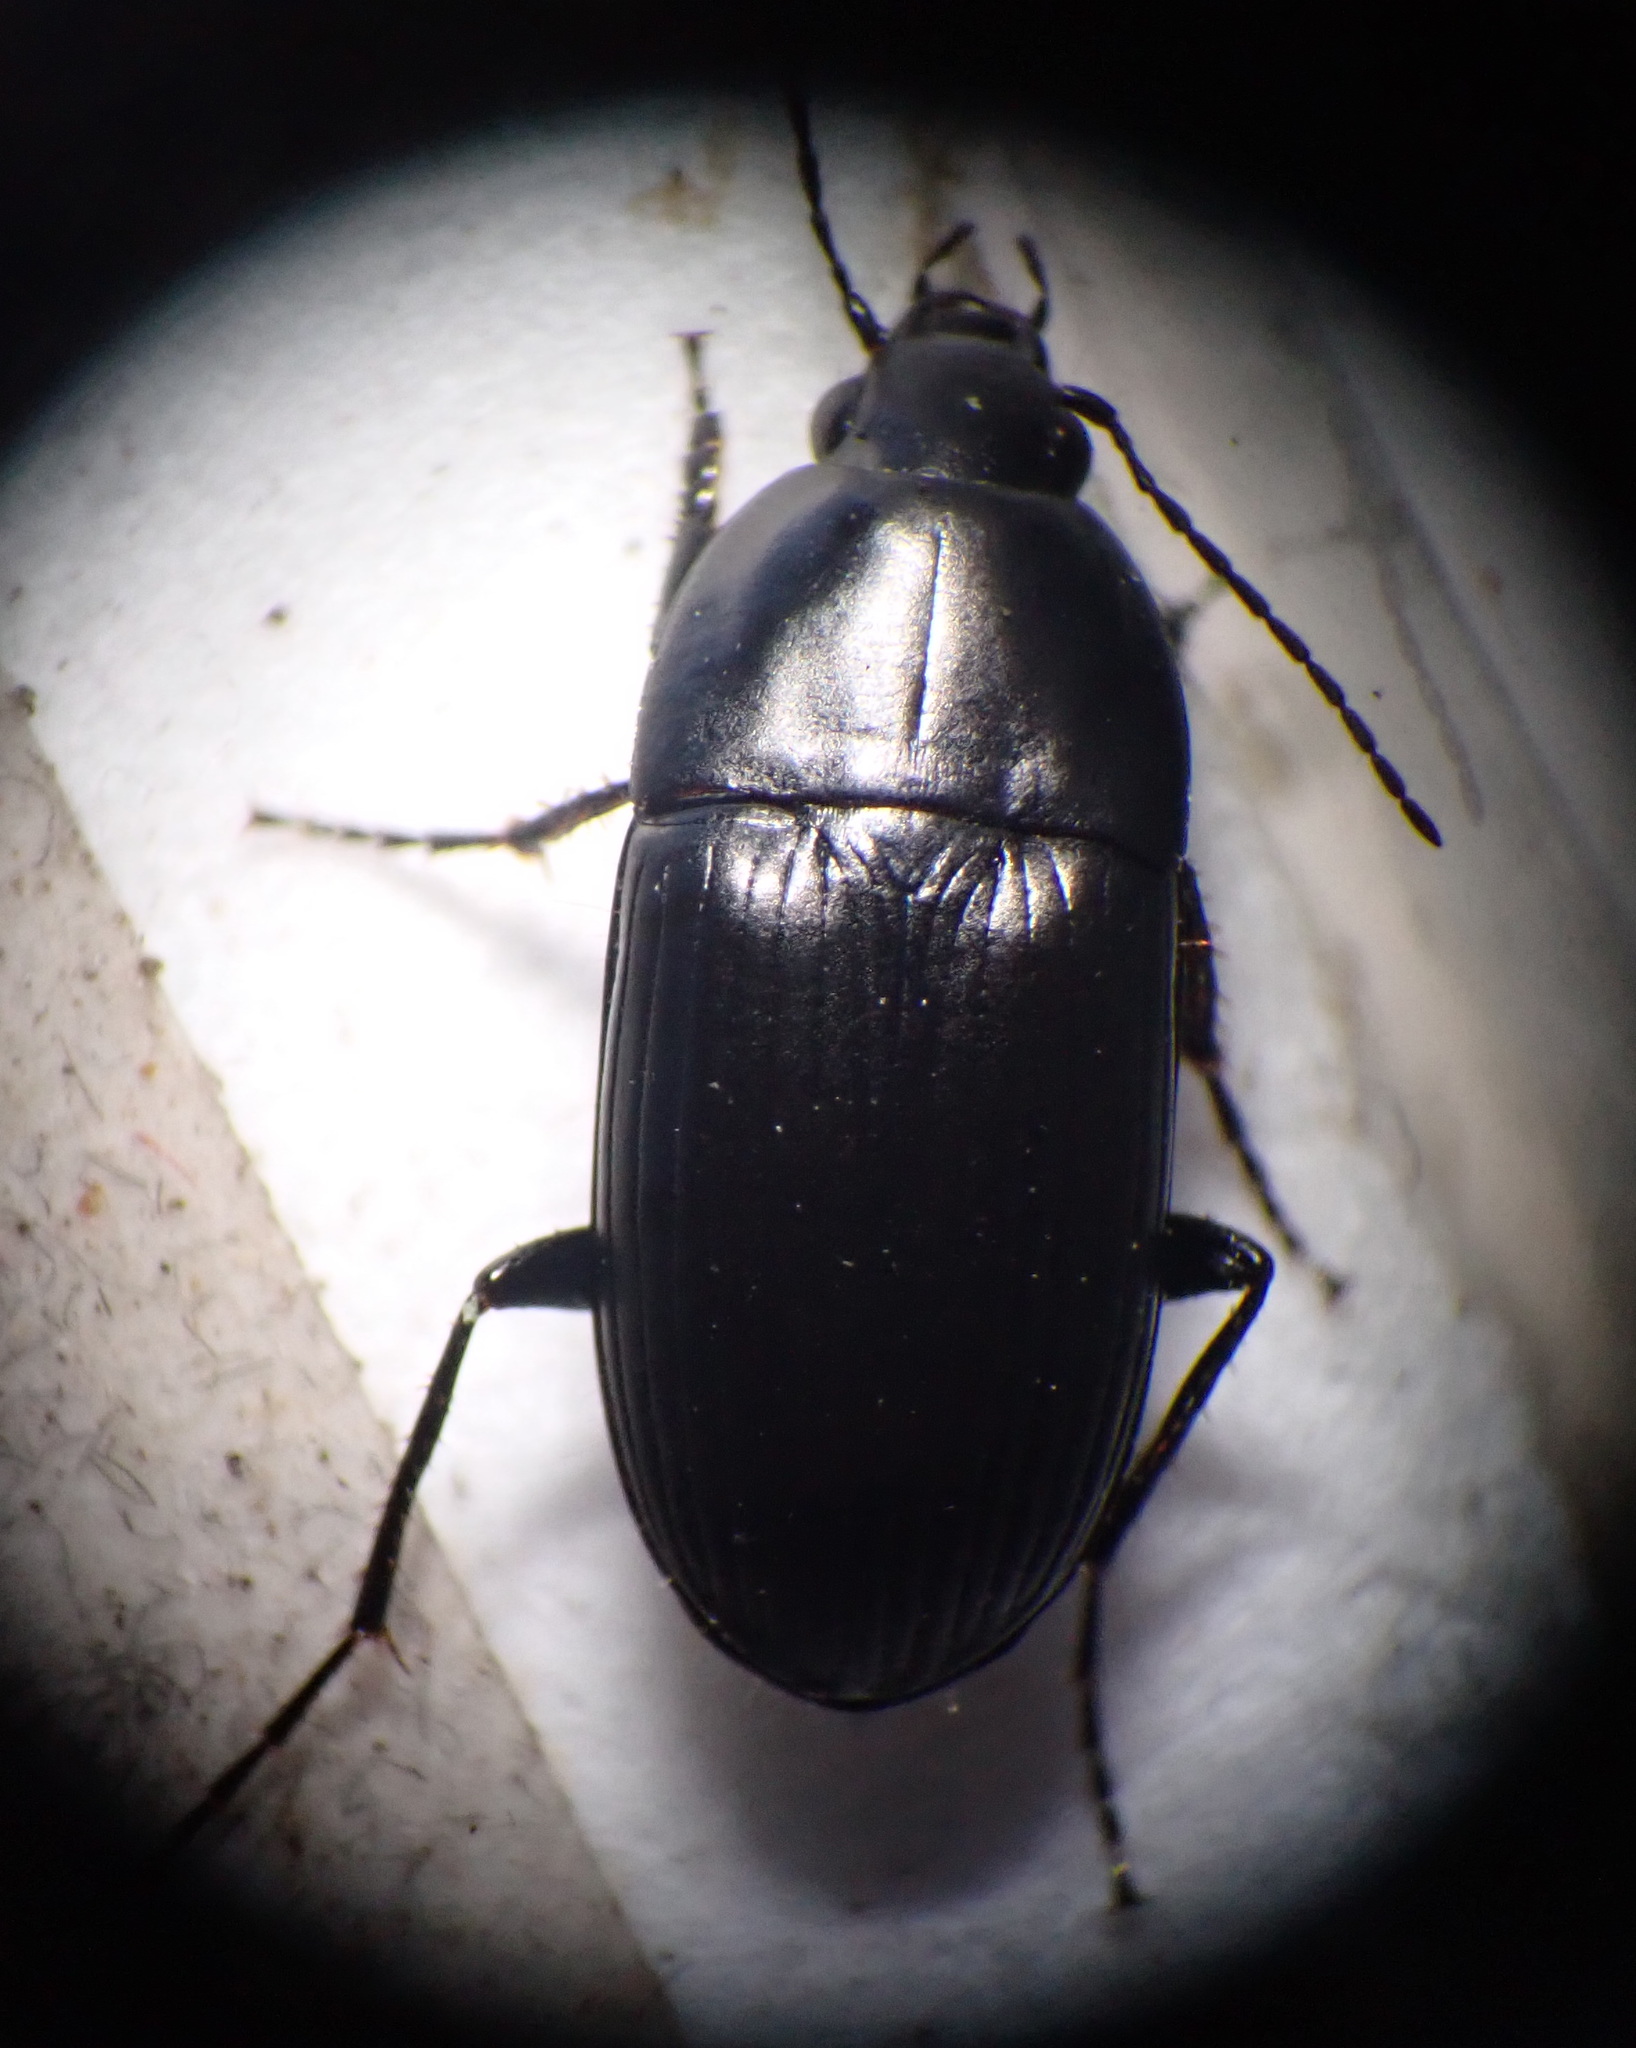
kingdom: Animalia
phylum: Arthropoda
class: Insecta
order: Coleoptera
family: Carabidae
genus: Oodes
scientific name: Oodes helopioides
